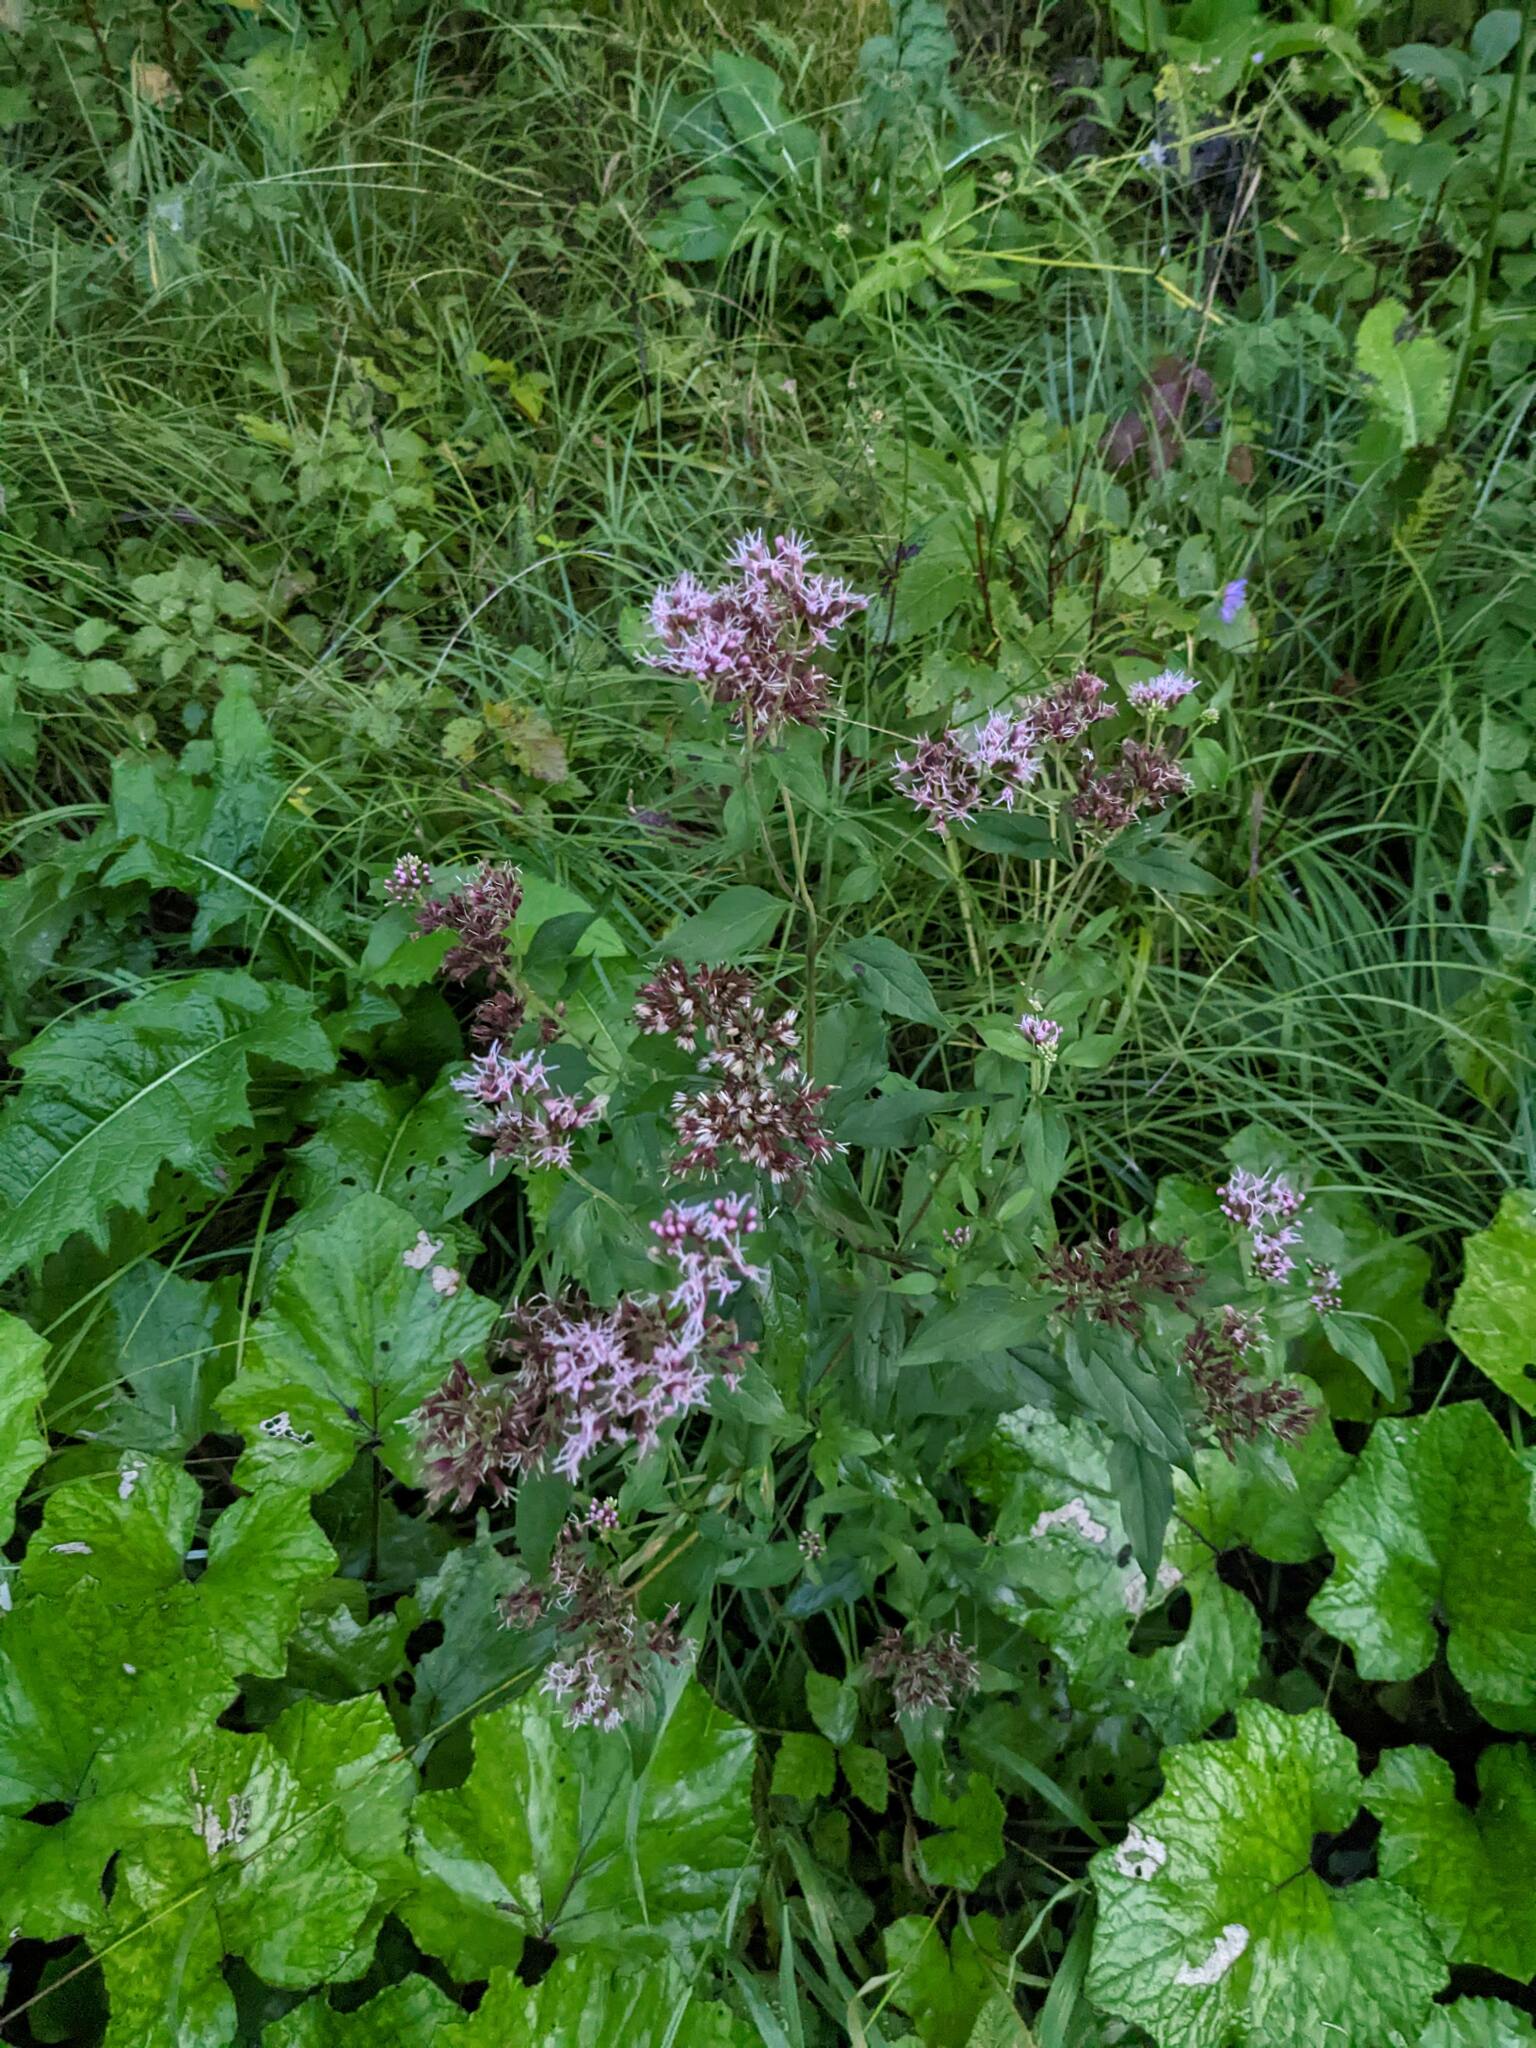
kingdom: Plantae
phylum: Tracheophyta
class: Magnoliopsida
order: Asterales
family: Asteraceae
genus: Eupatorium
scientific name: Eupatorium cannabinum
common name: Hemp-agrimony
